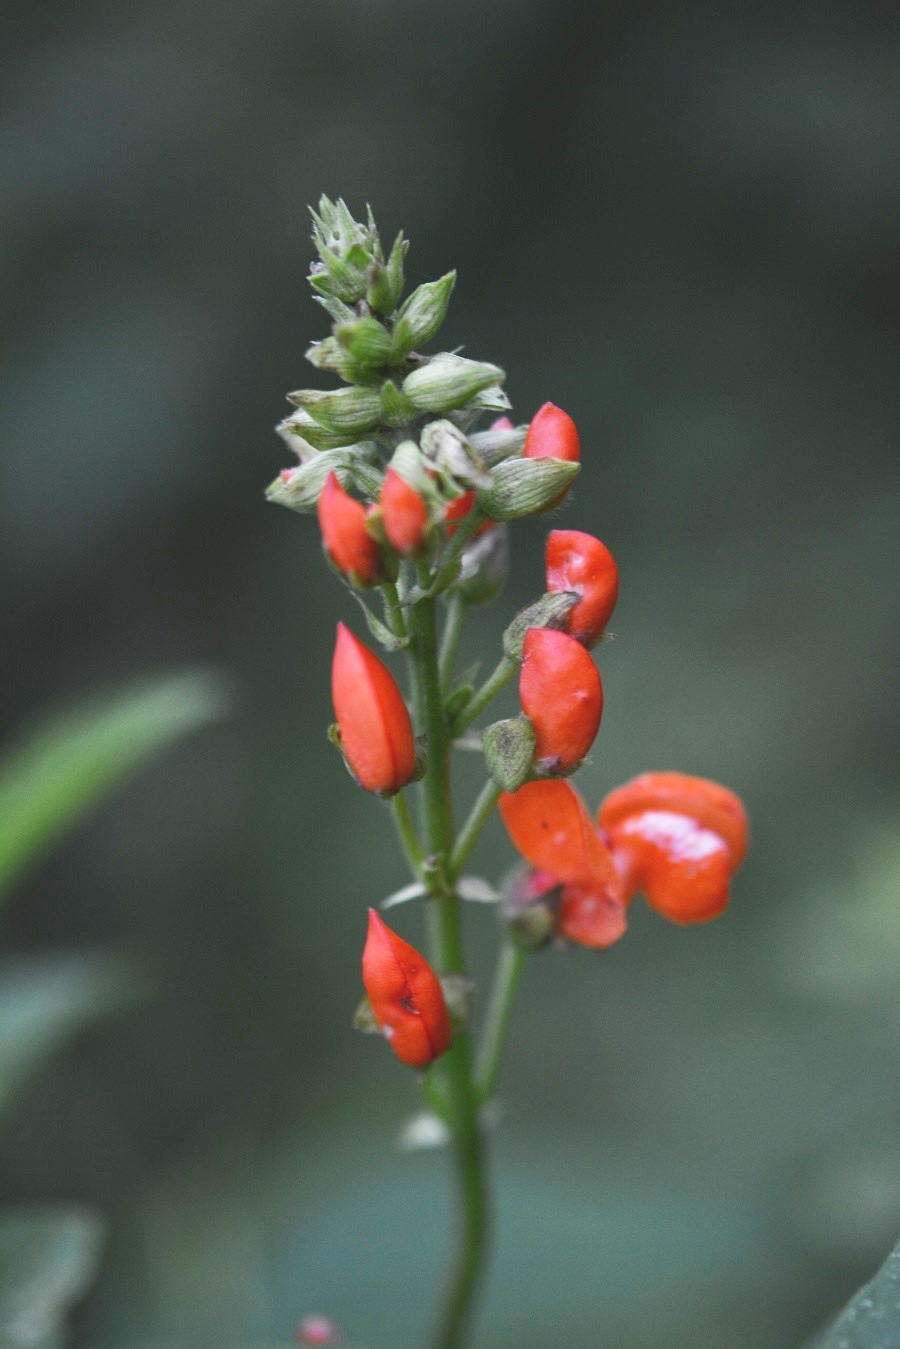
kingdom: Plantae
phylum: Tracheophyta
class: Magnoliopsida
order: Fabales
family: Fabaceae
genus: Phaseolus
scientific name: Phaseolus coccineus
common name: Runner bean
